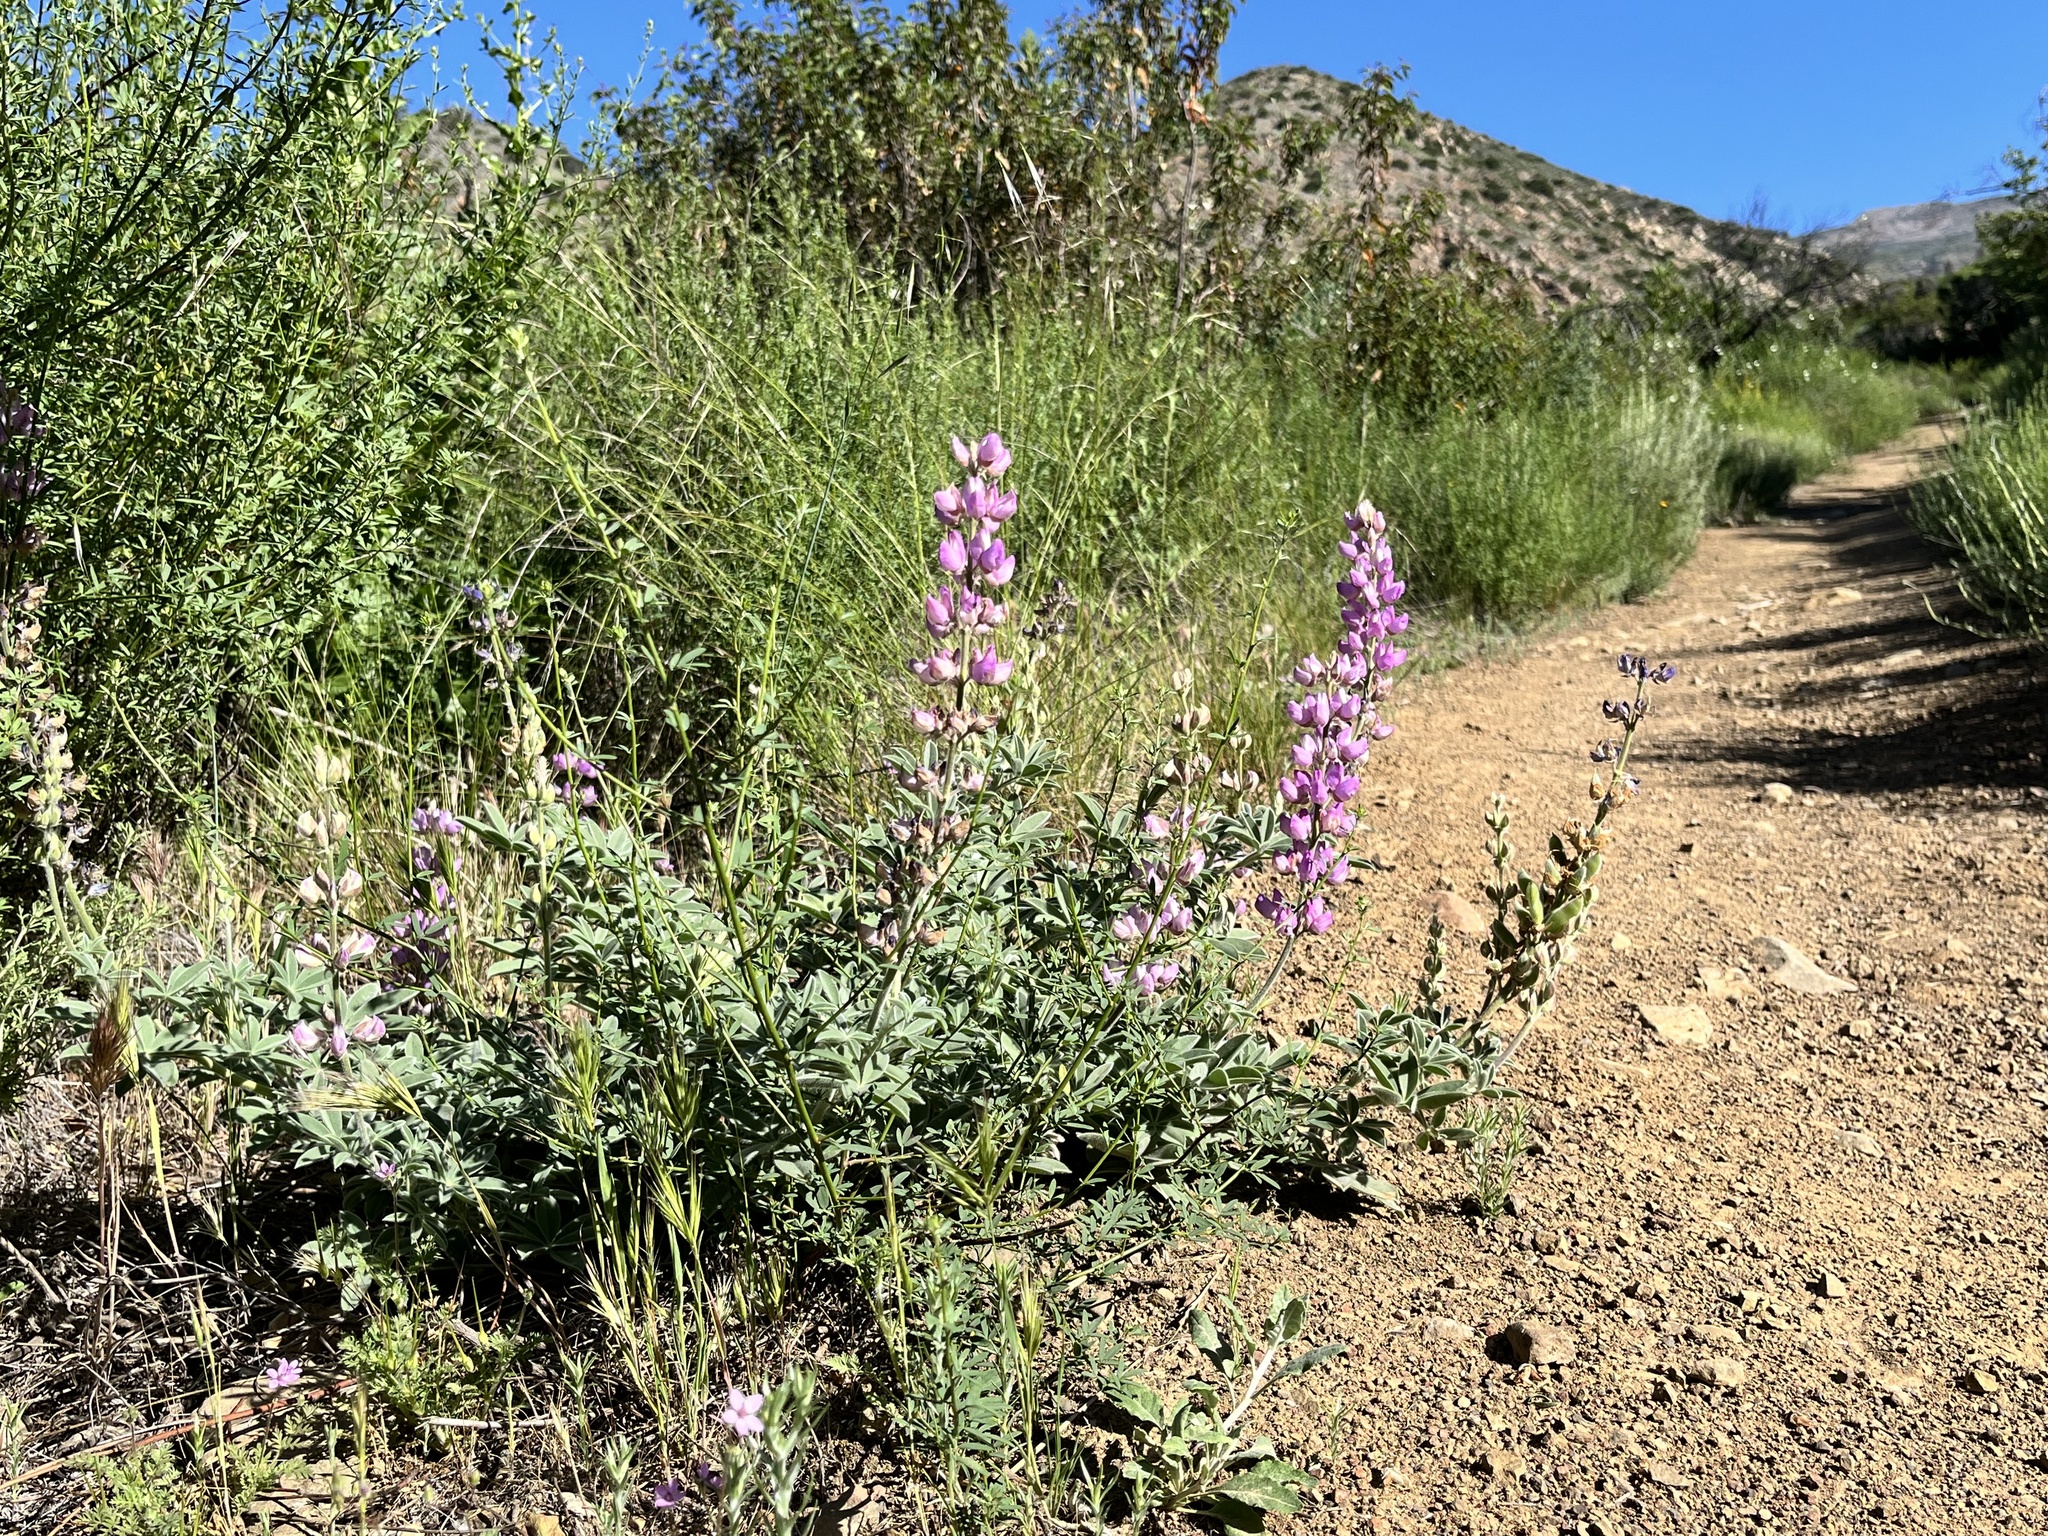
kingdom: Plantae
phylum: Tracheophyta
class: Magnoliopsida
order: Fabales
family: Fabaceae
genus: Lupinus
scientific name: Lupinus formosus
